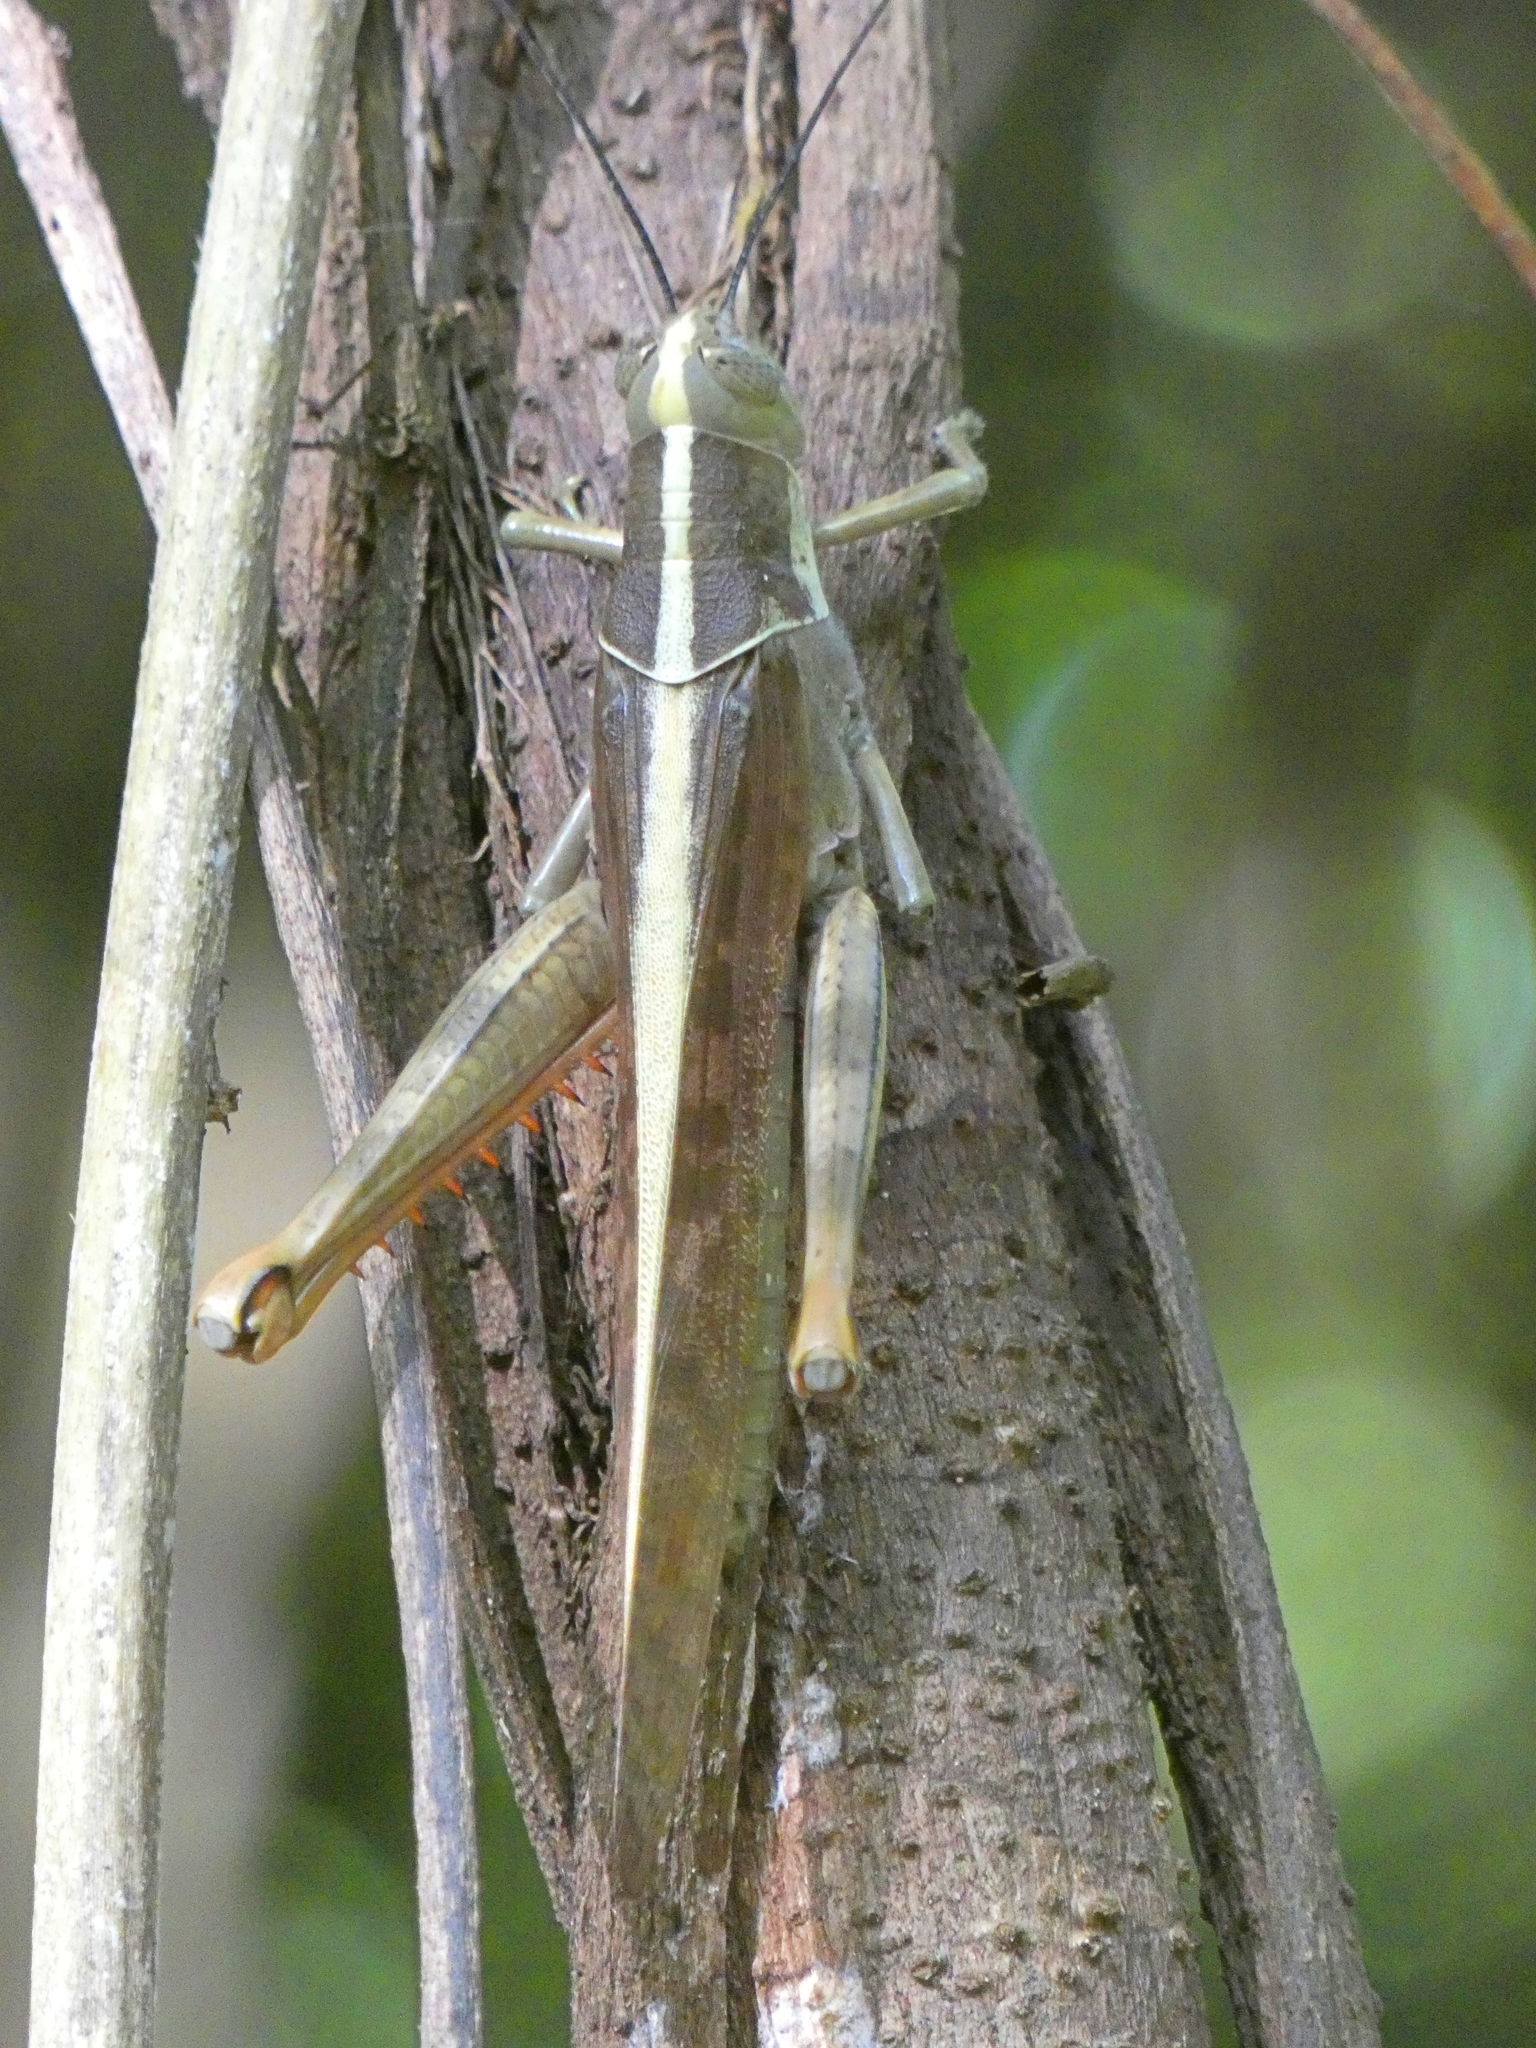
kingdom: Animalia
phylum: Arthropoda
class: Insecta
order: Orthoptera
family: Acrididae
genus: Valanga
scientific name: Valanga irregularis
